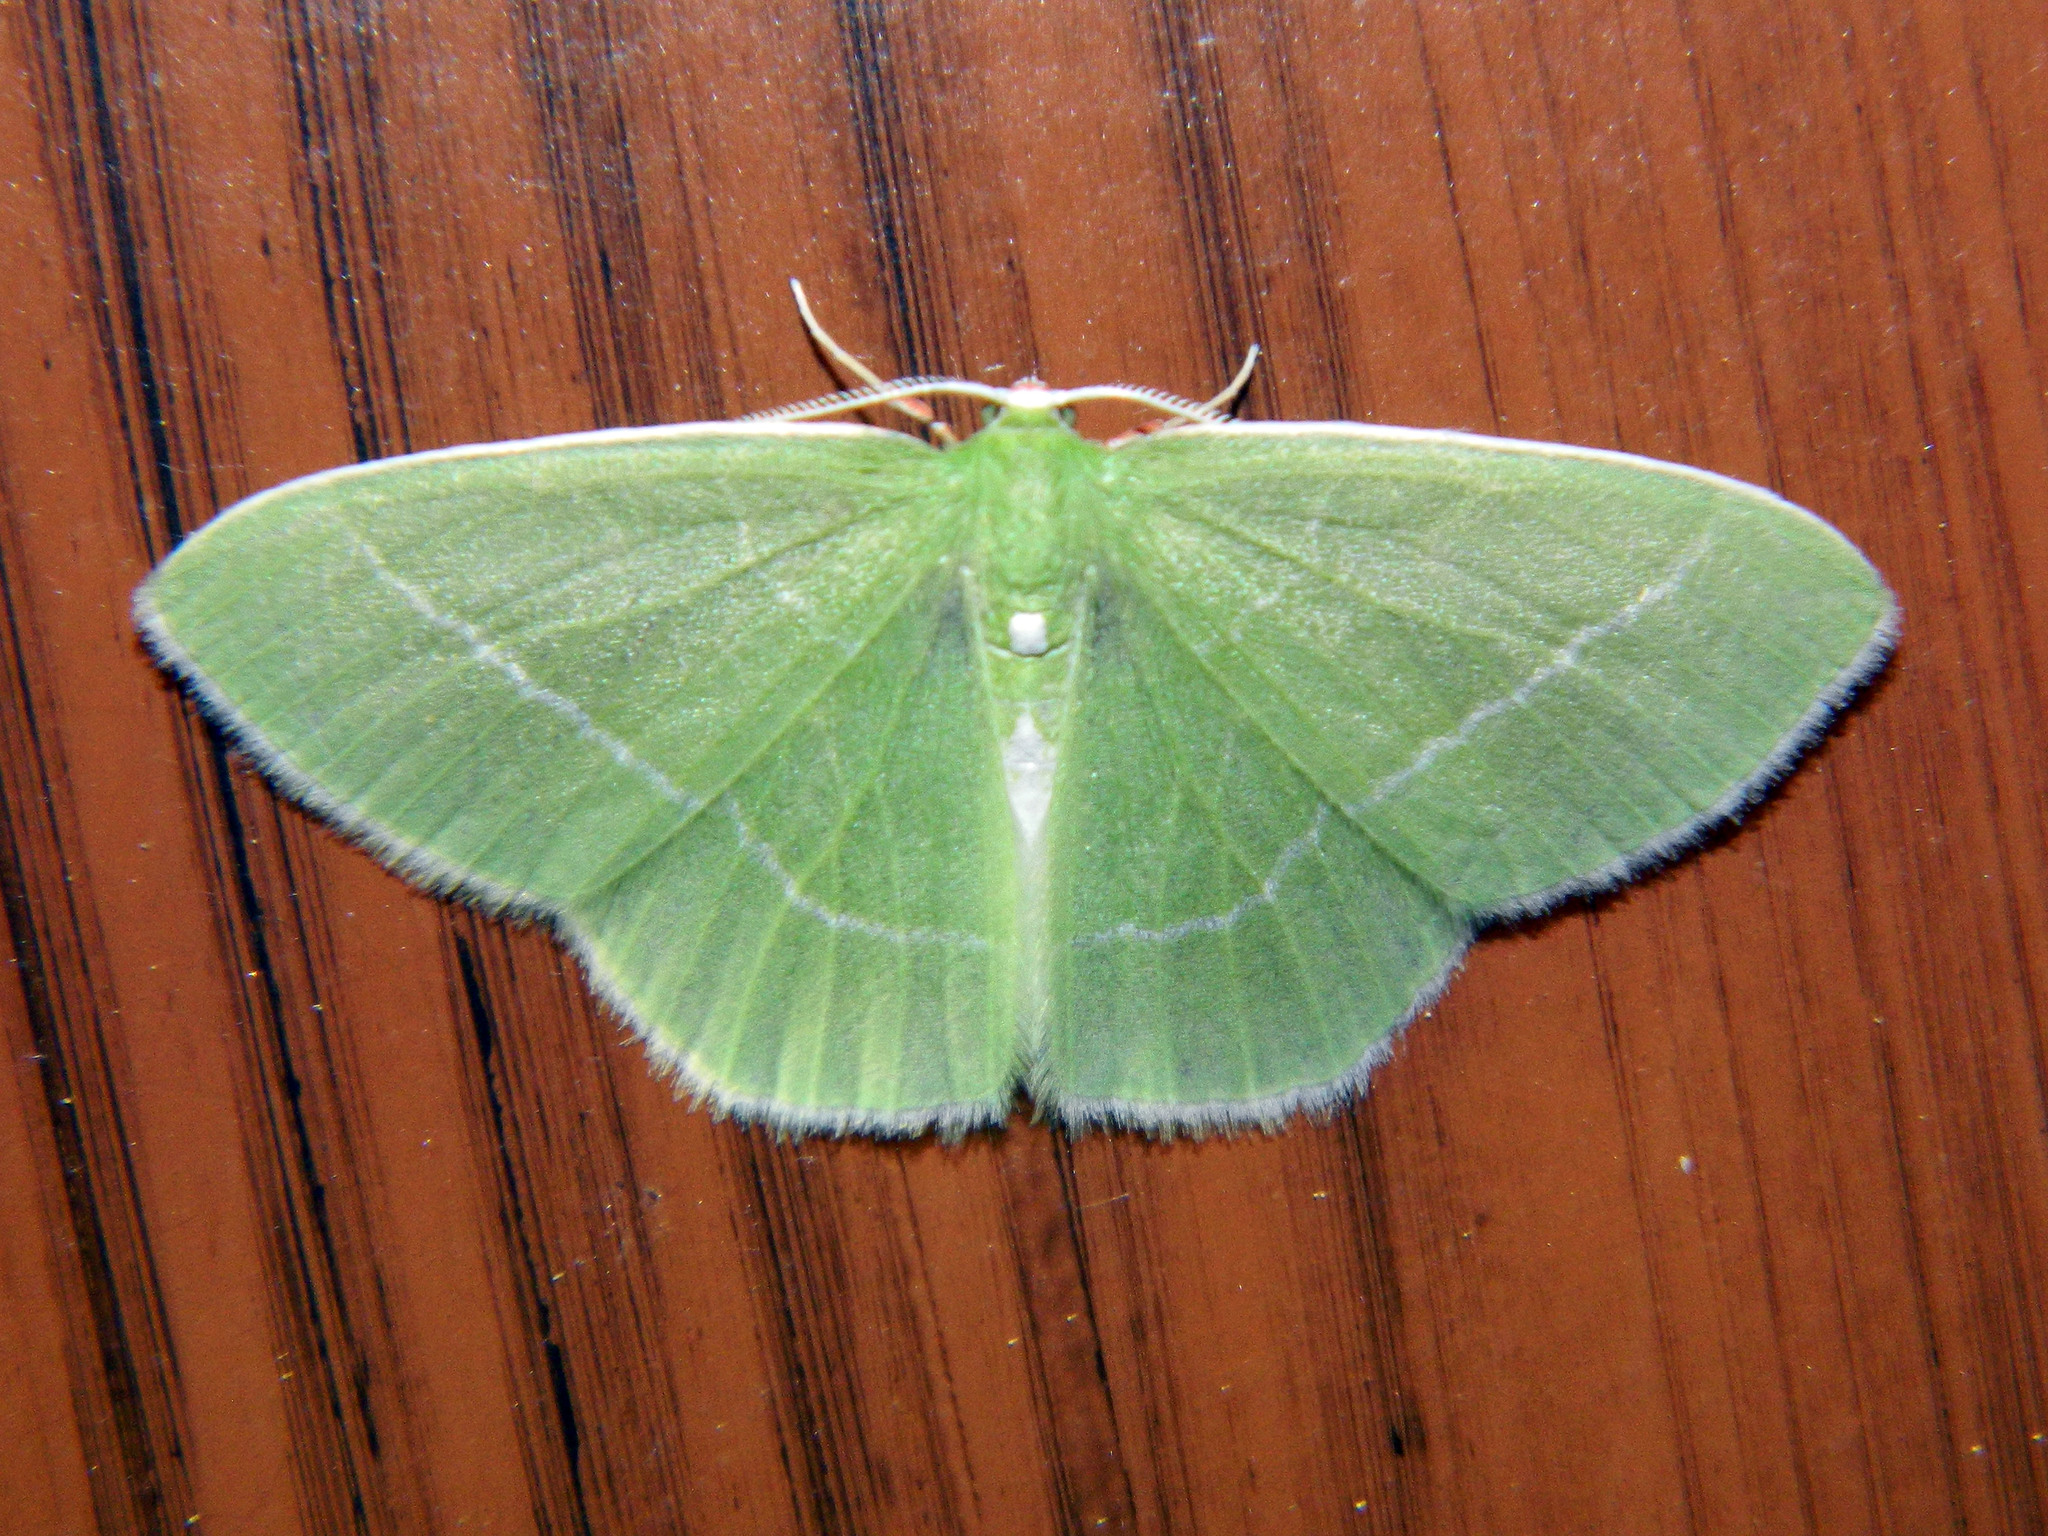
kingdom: Animalia
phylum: Arthropoda
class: Insecta
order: Lepidoptera
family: Geometridae
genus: Nemoria
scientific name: Nemoria mimosaria
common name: White-fringed emerald
